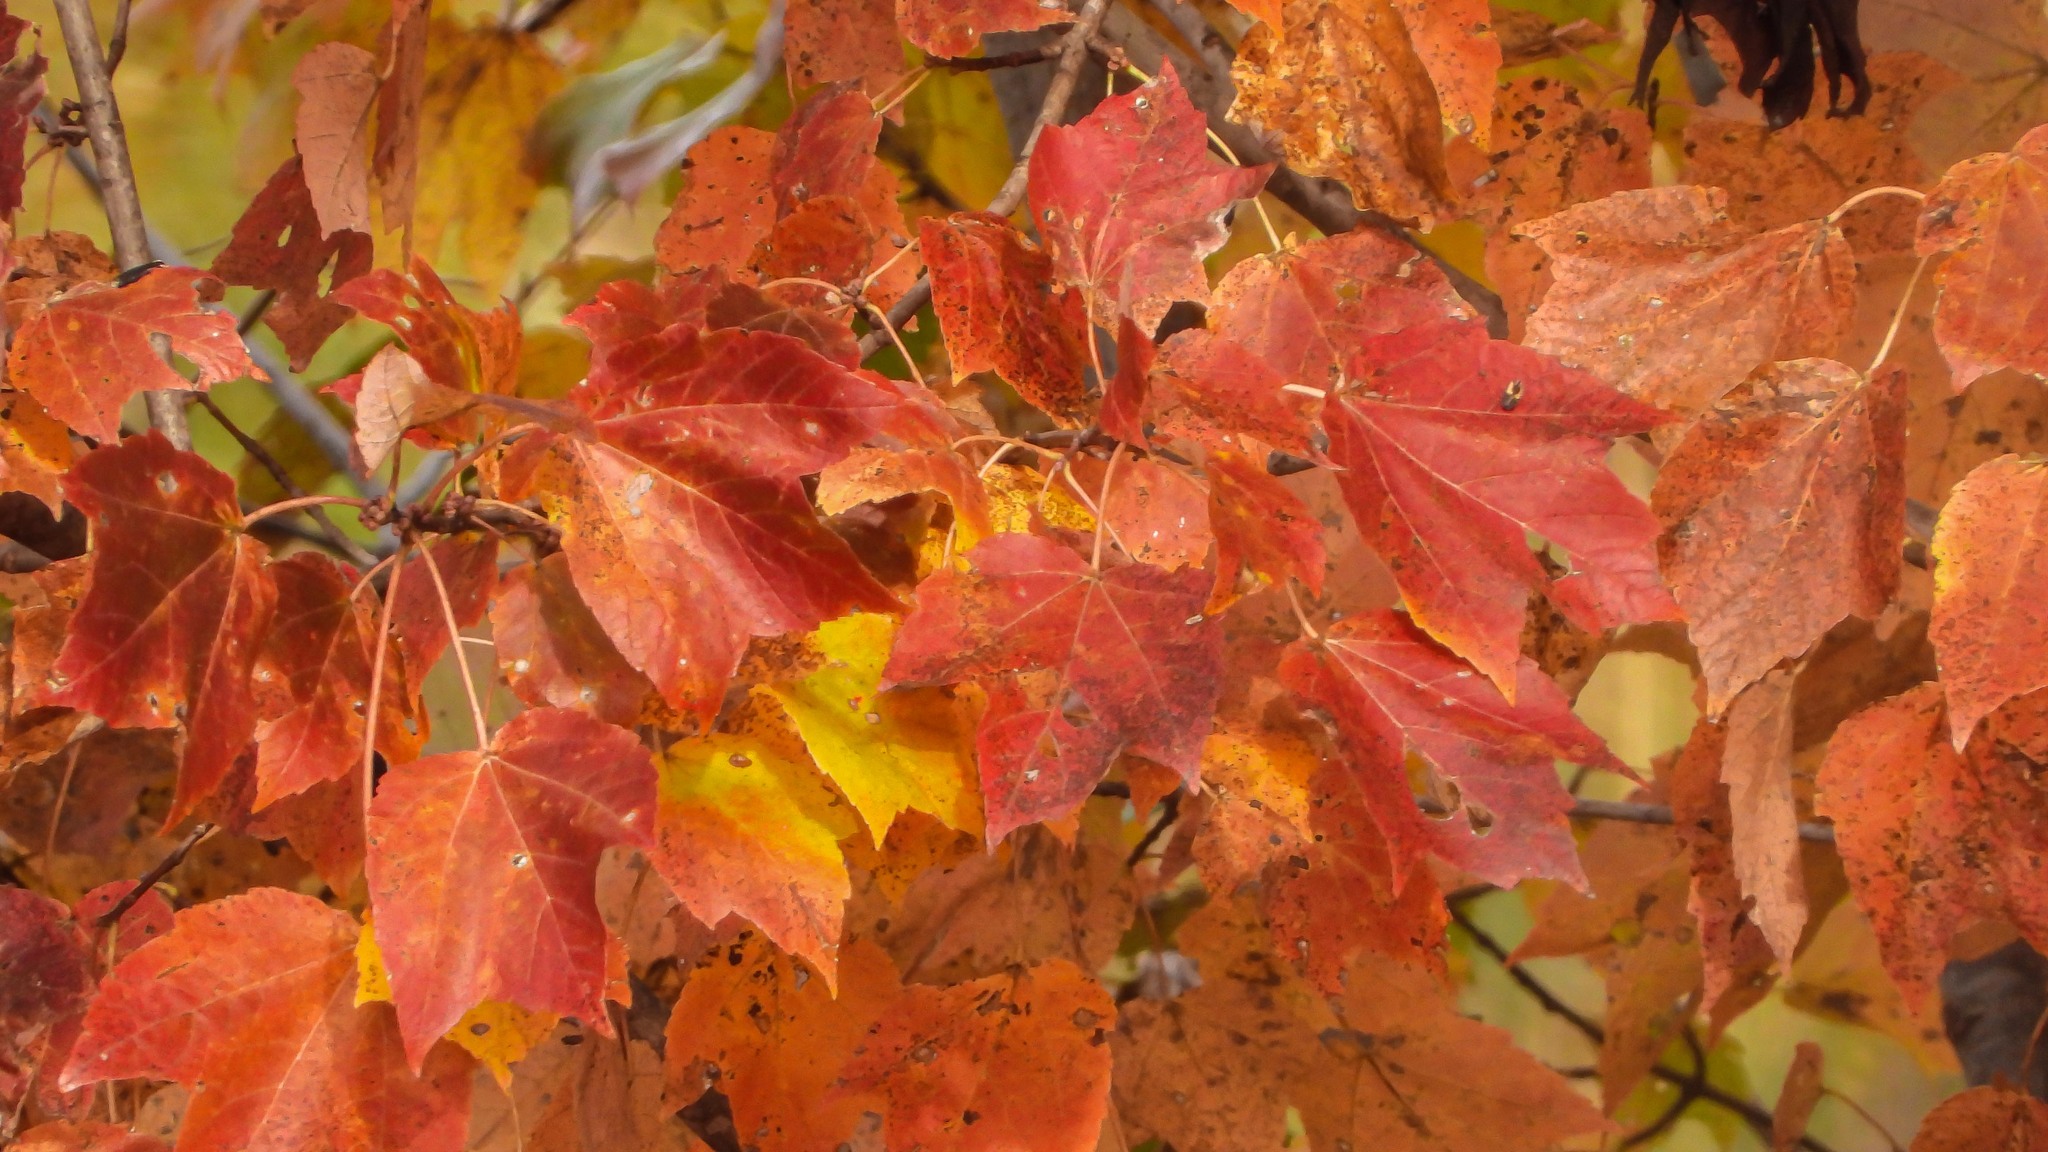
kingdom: Plantae
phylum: Tracheophyta
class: Magnoliopsida
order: Sapindales
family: Sapindaceae
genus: Acer
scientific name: Acer rubrum
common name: Red maple
